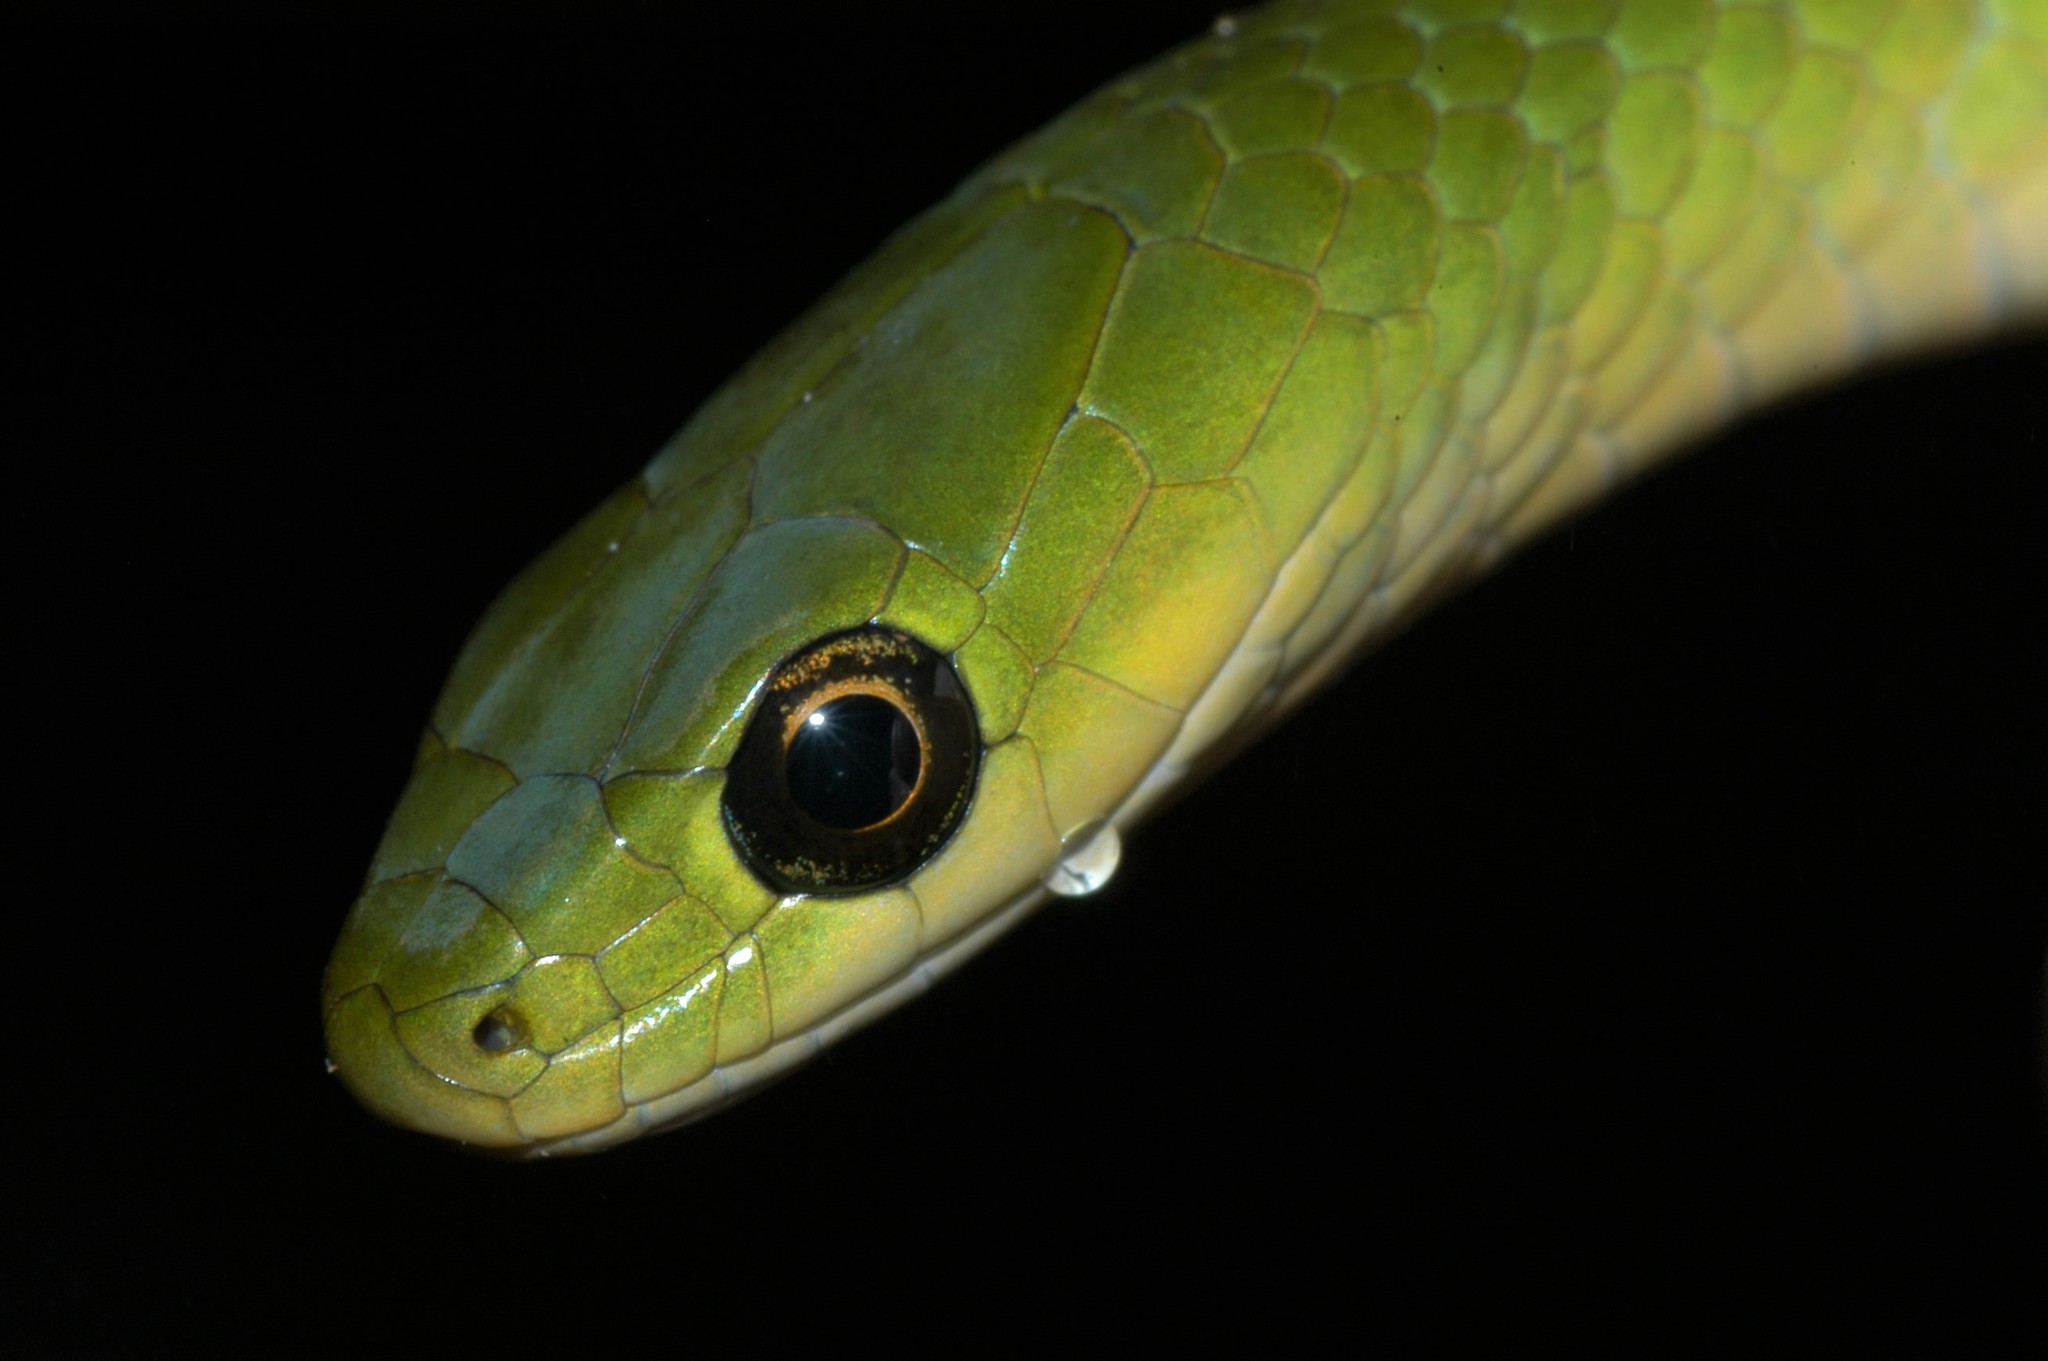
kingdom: Animalia
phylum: Chordata
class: Squamata
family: Colubridae
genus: Philothamnus
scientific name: Philothamnus hoplogaster
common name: Green water snake
